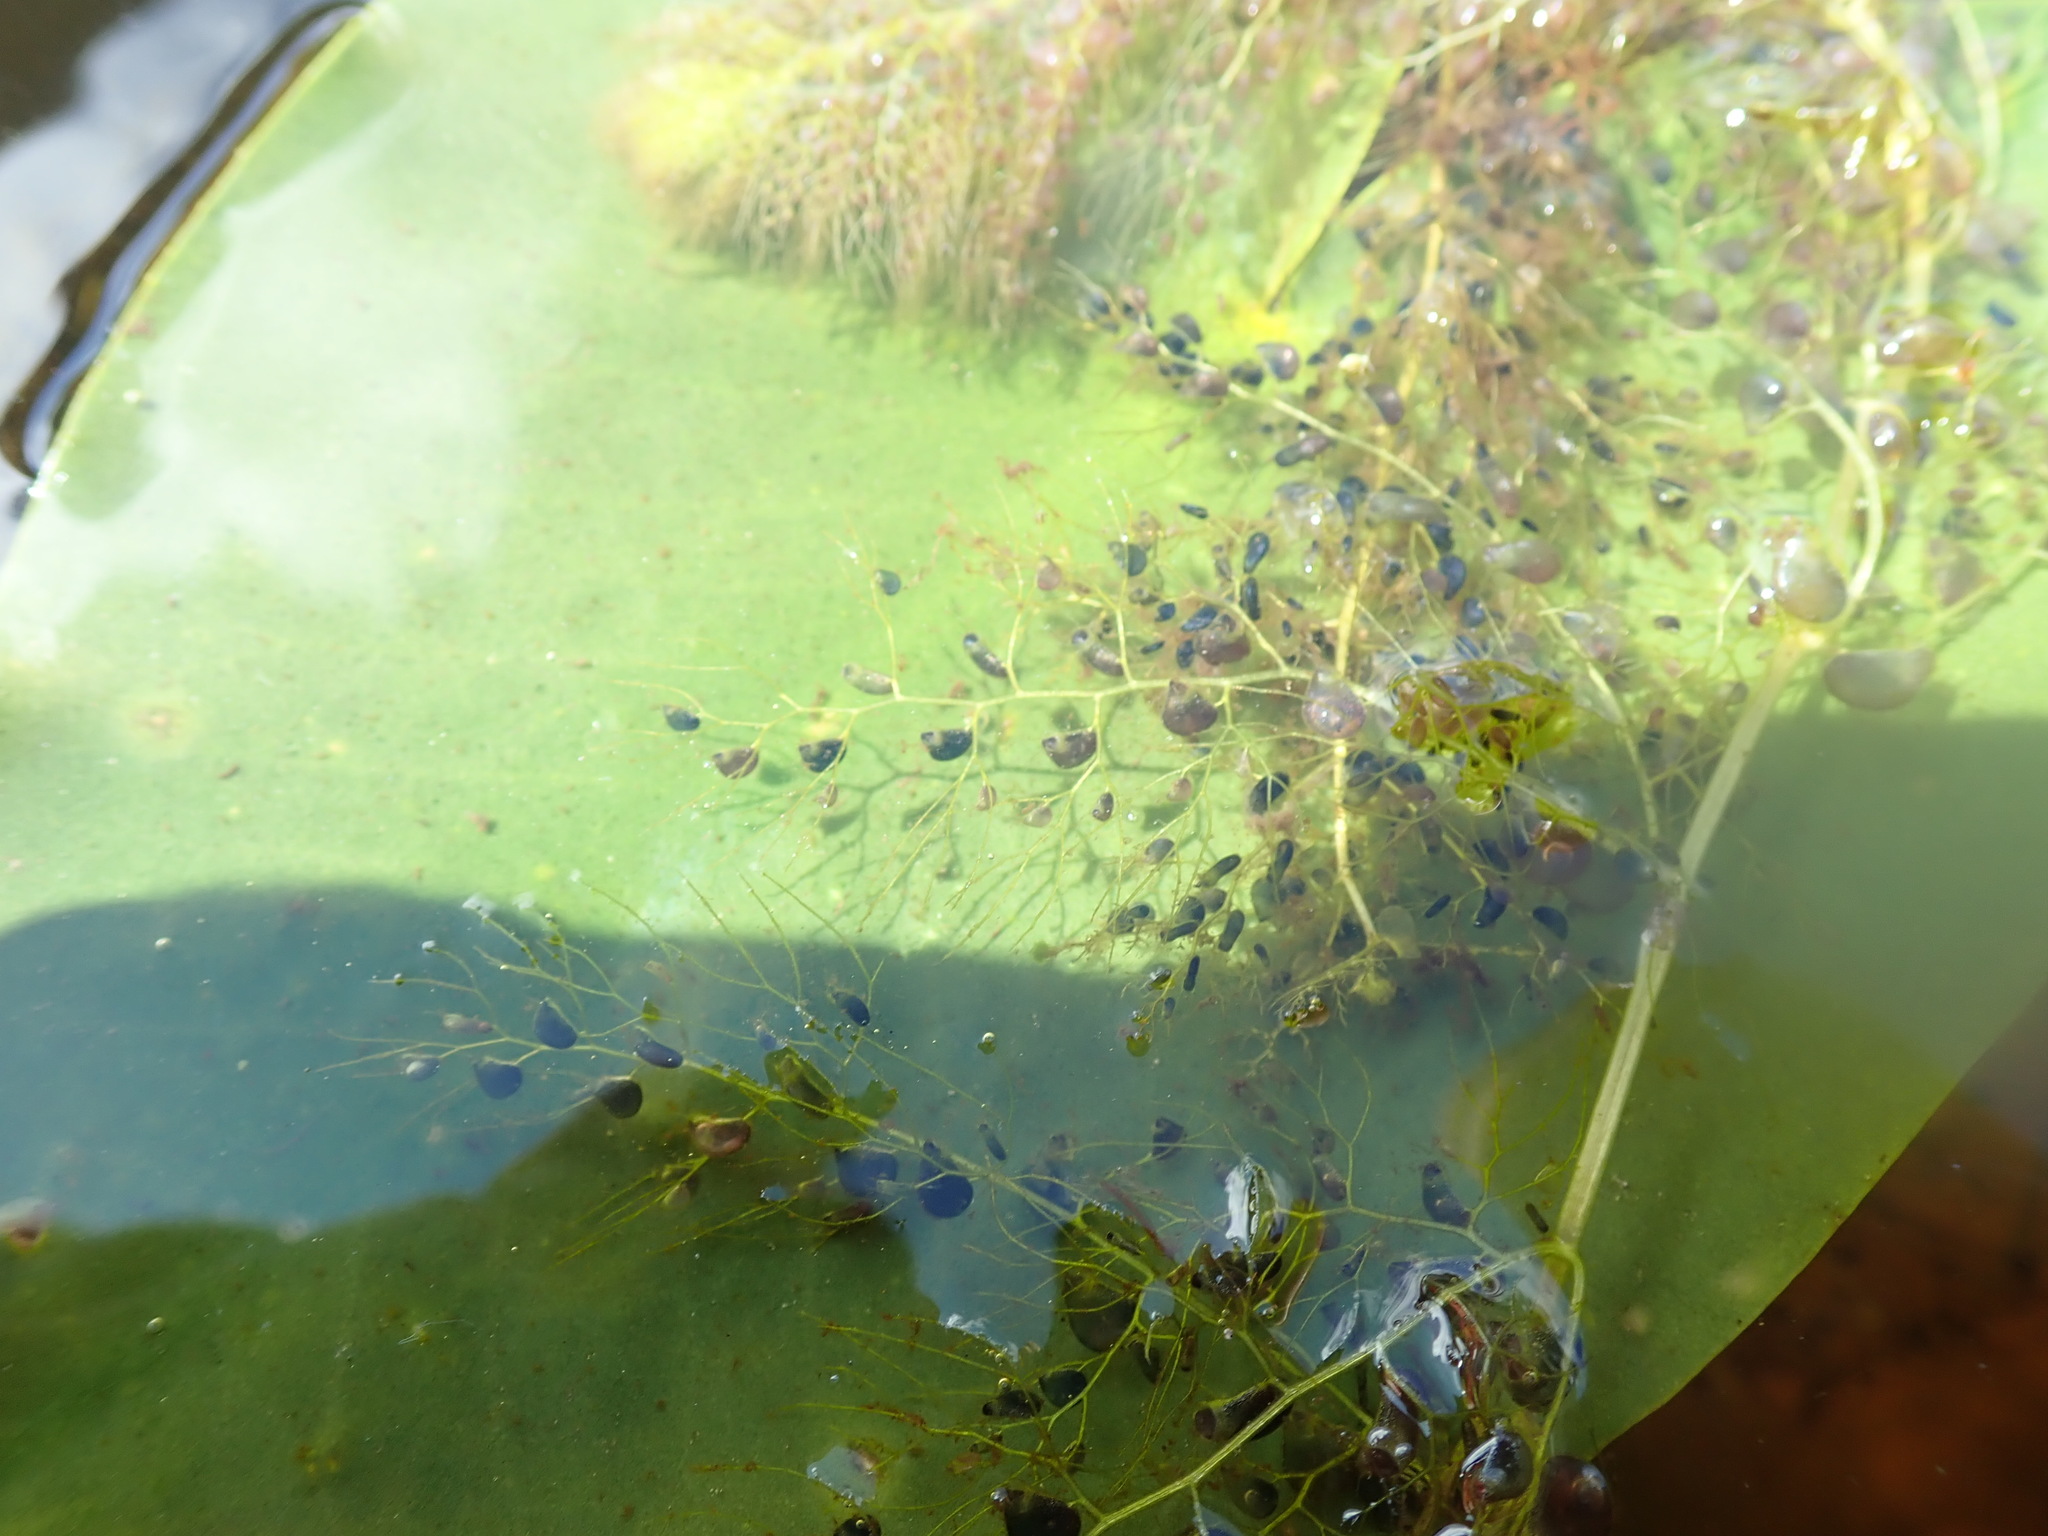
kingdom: Plantae
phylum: Tracheophyta
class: Magnoliopsida
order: Lamiales
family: Lentibulariaceae
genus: Utricularia
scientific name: Utricularia macrorhiza
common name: Common bladderwort
